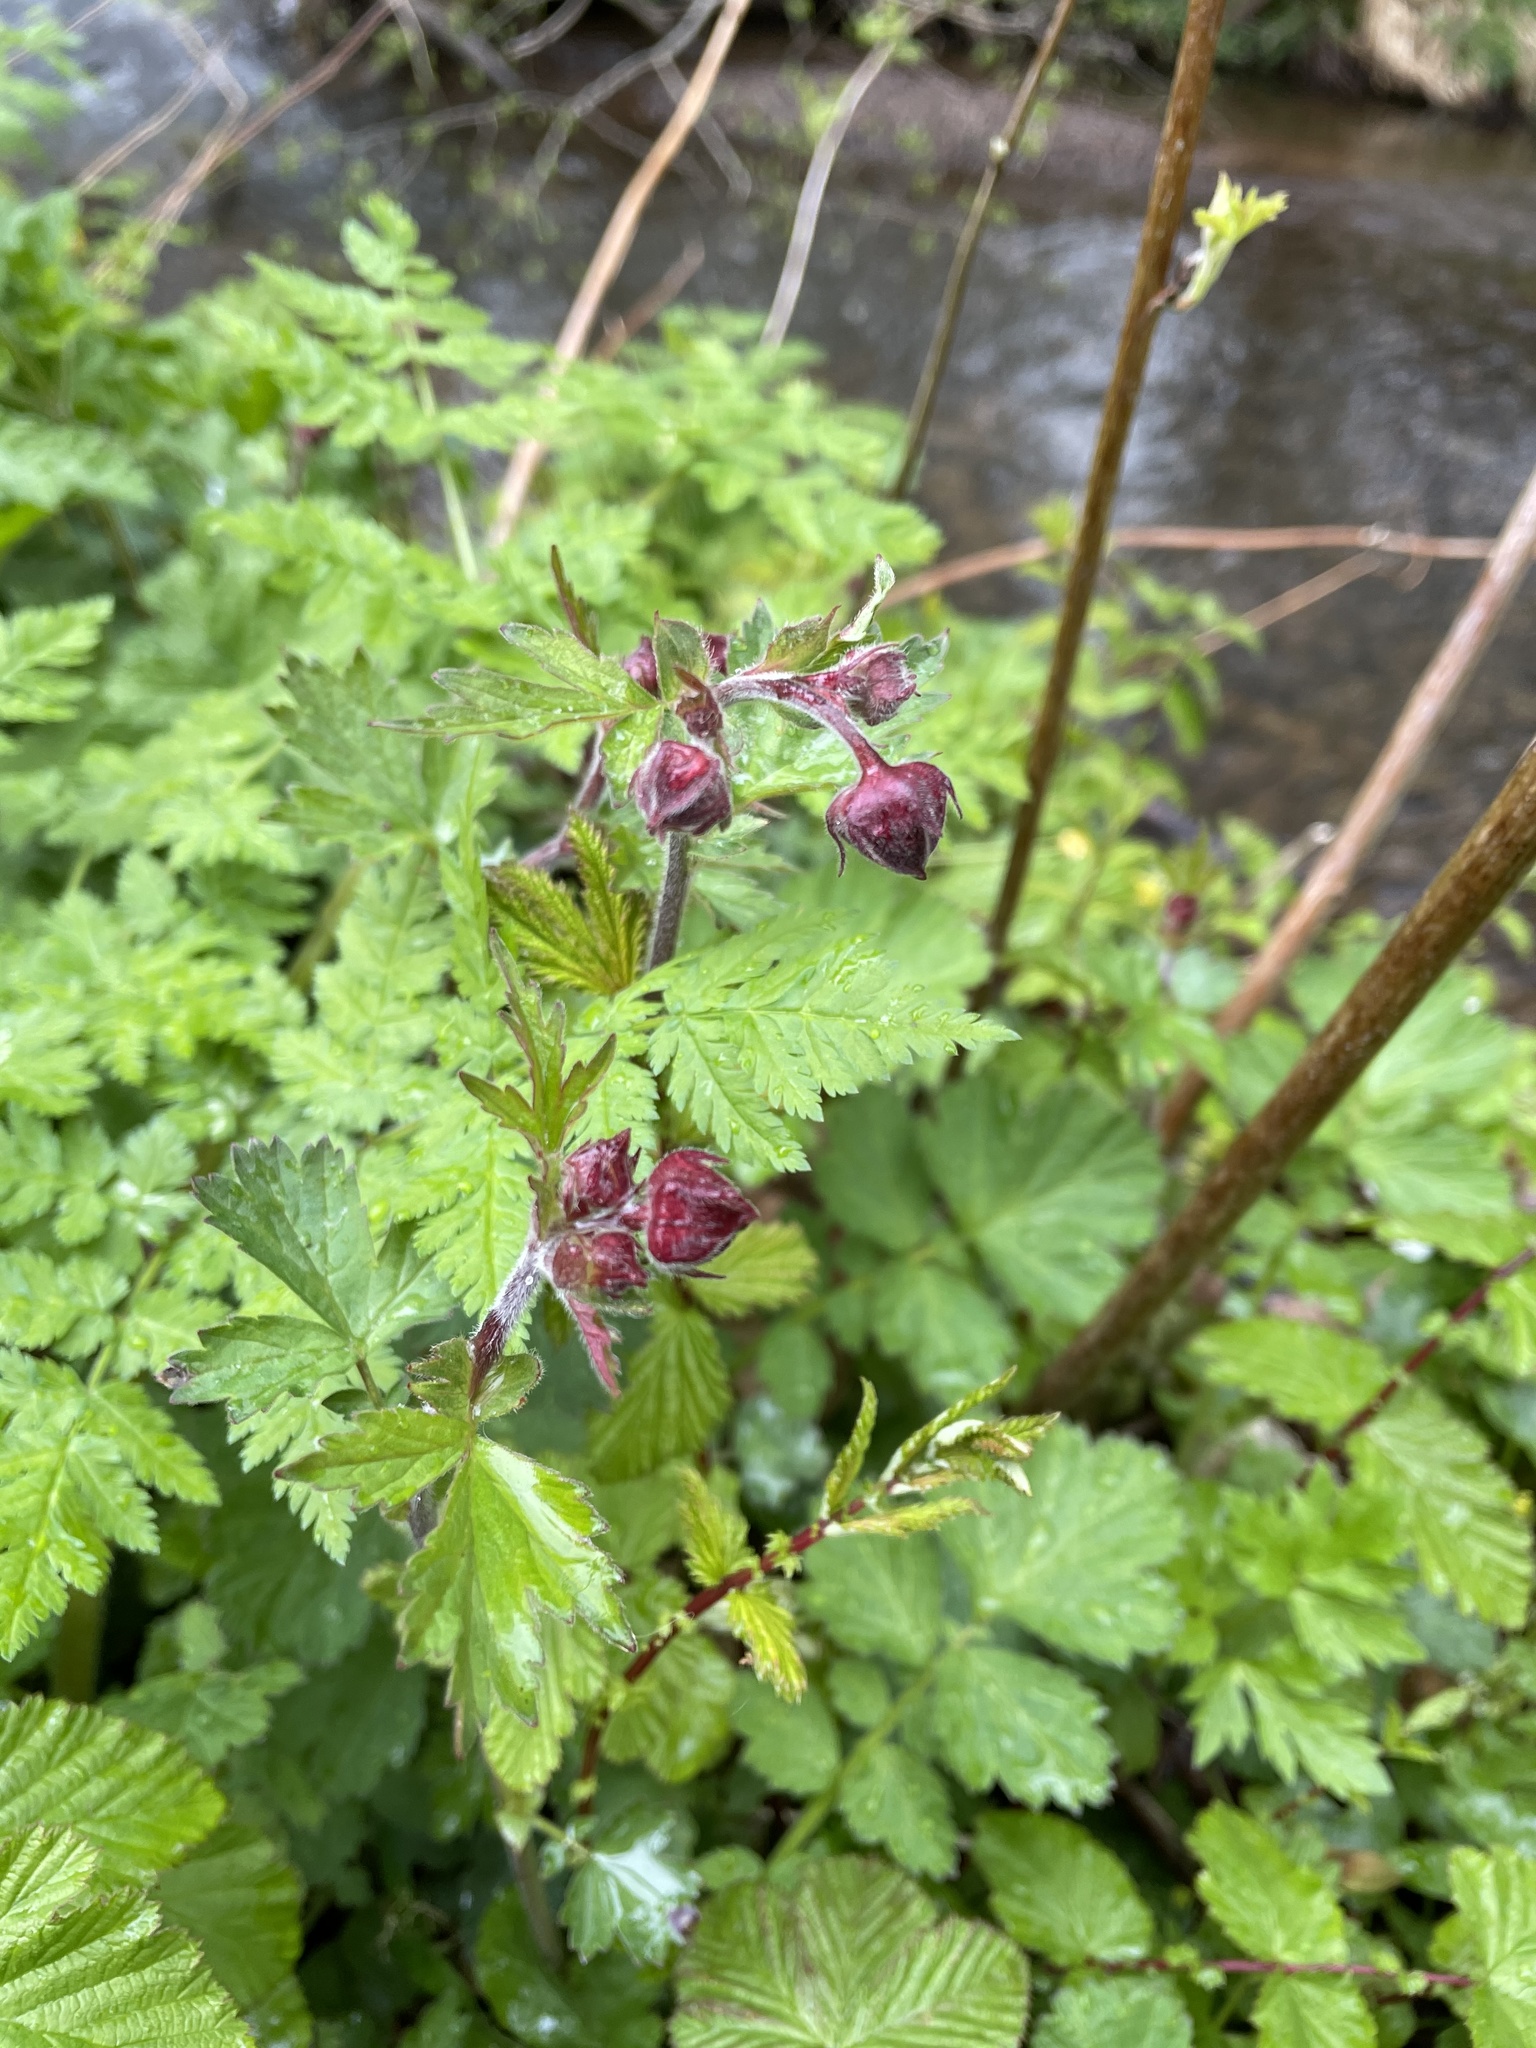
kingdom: Plantae
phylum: Tracheophyta
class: Magnoliopsida
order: Rosales
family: Rosaceae
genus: Geum
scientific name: Geum rivale
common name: Water avens
